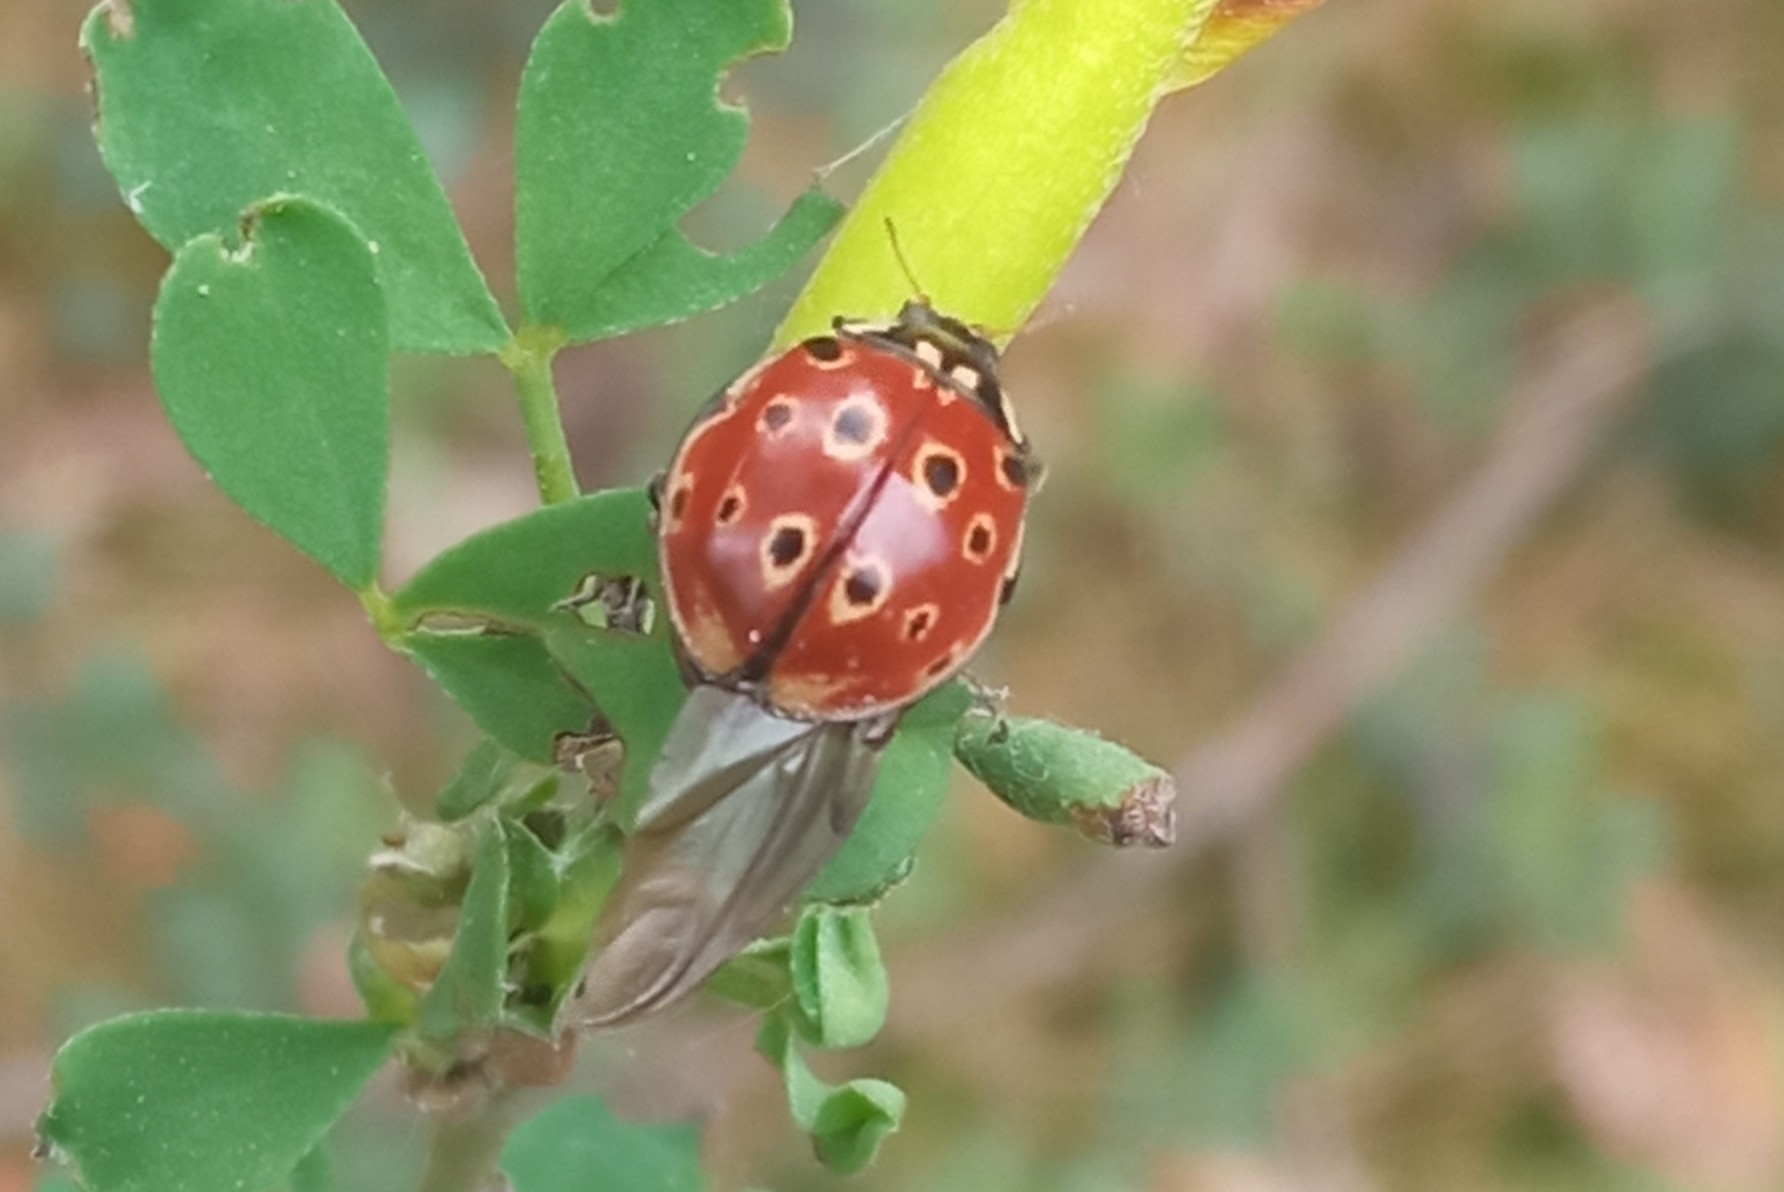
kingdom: Animalia
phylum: Arthropoda
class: Insecta
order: Coleoptera
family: Coccinellidae
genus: Anatis
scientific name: Anatis ocellata
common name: Eyed ladybird
